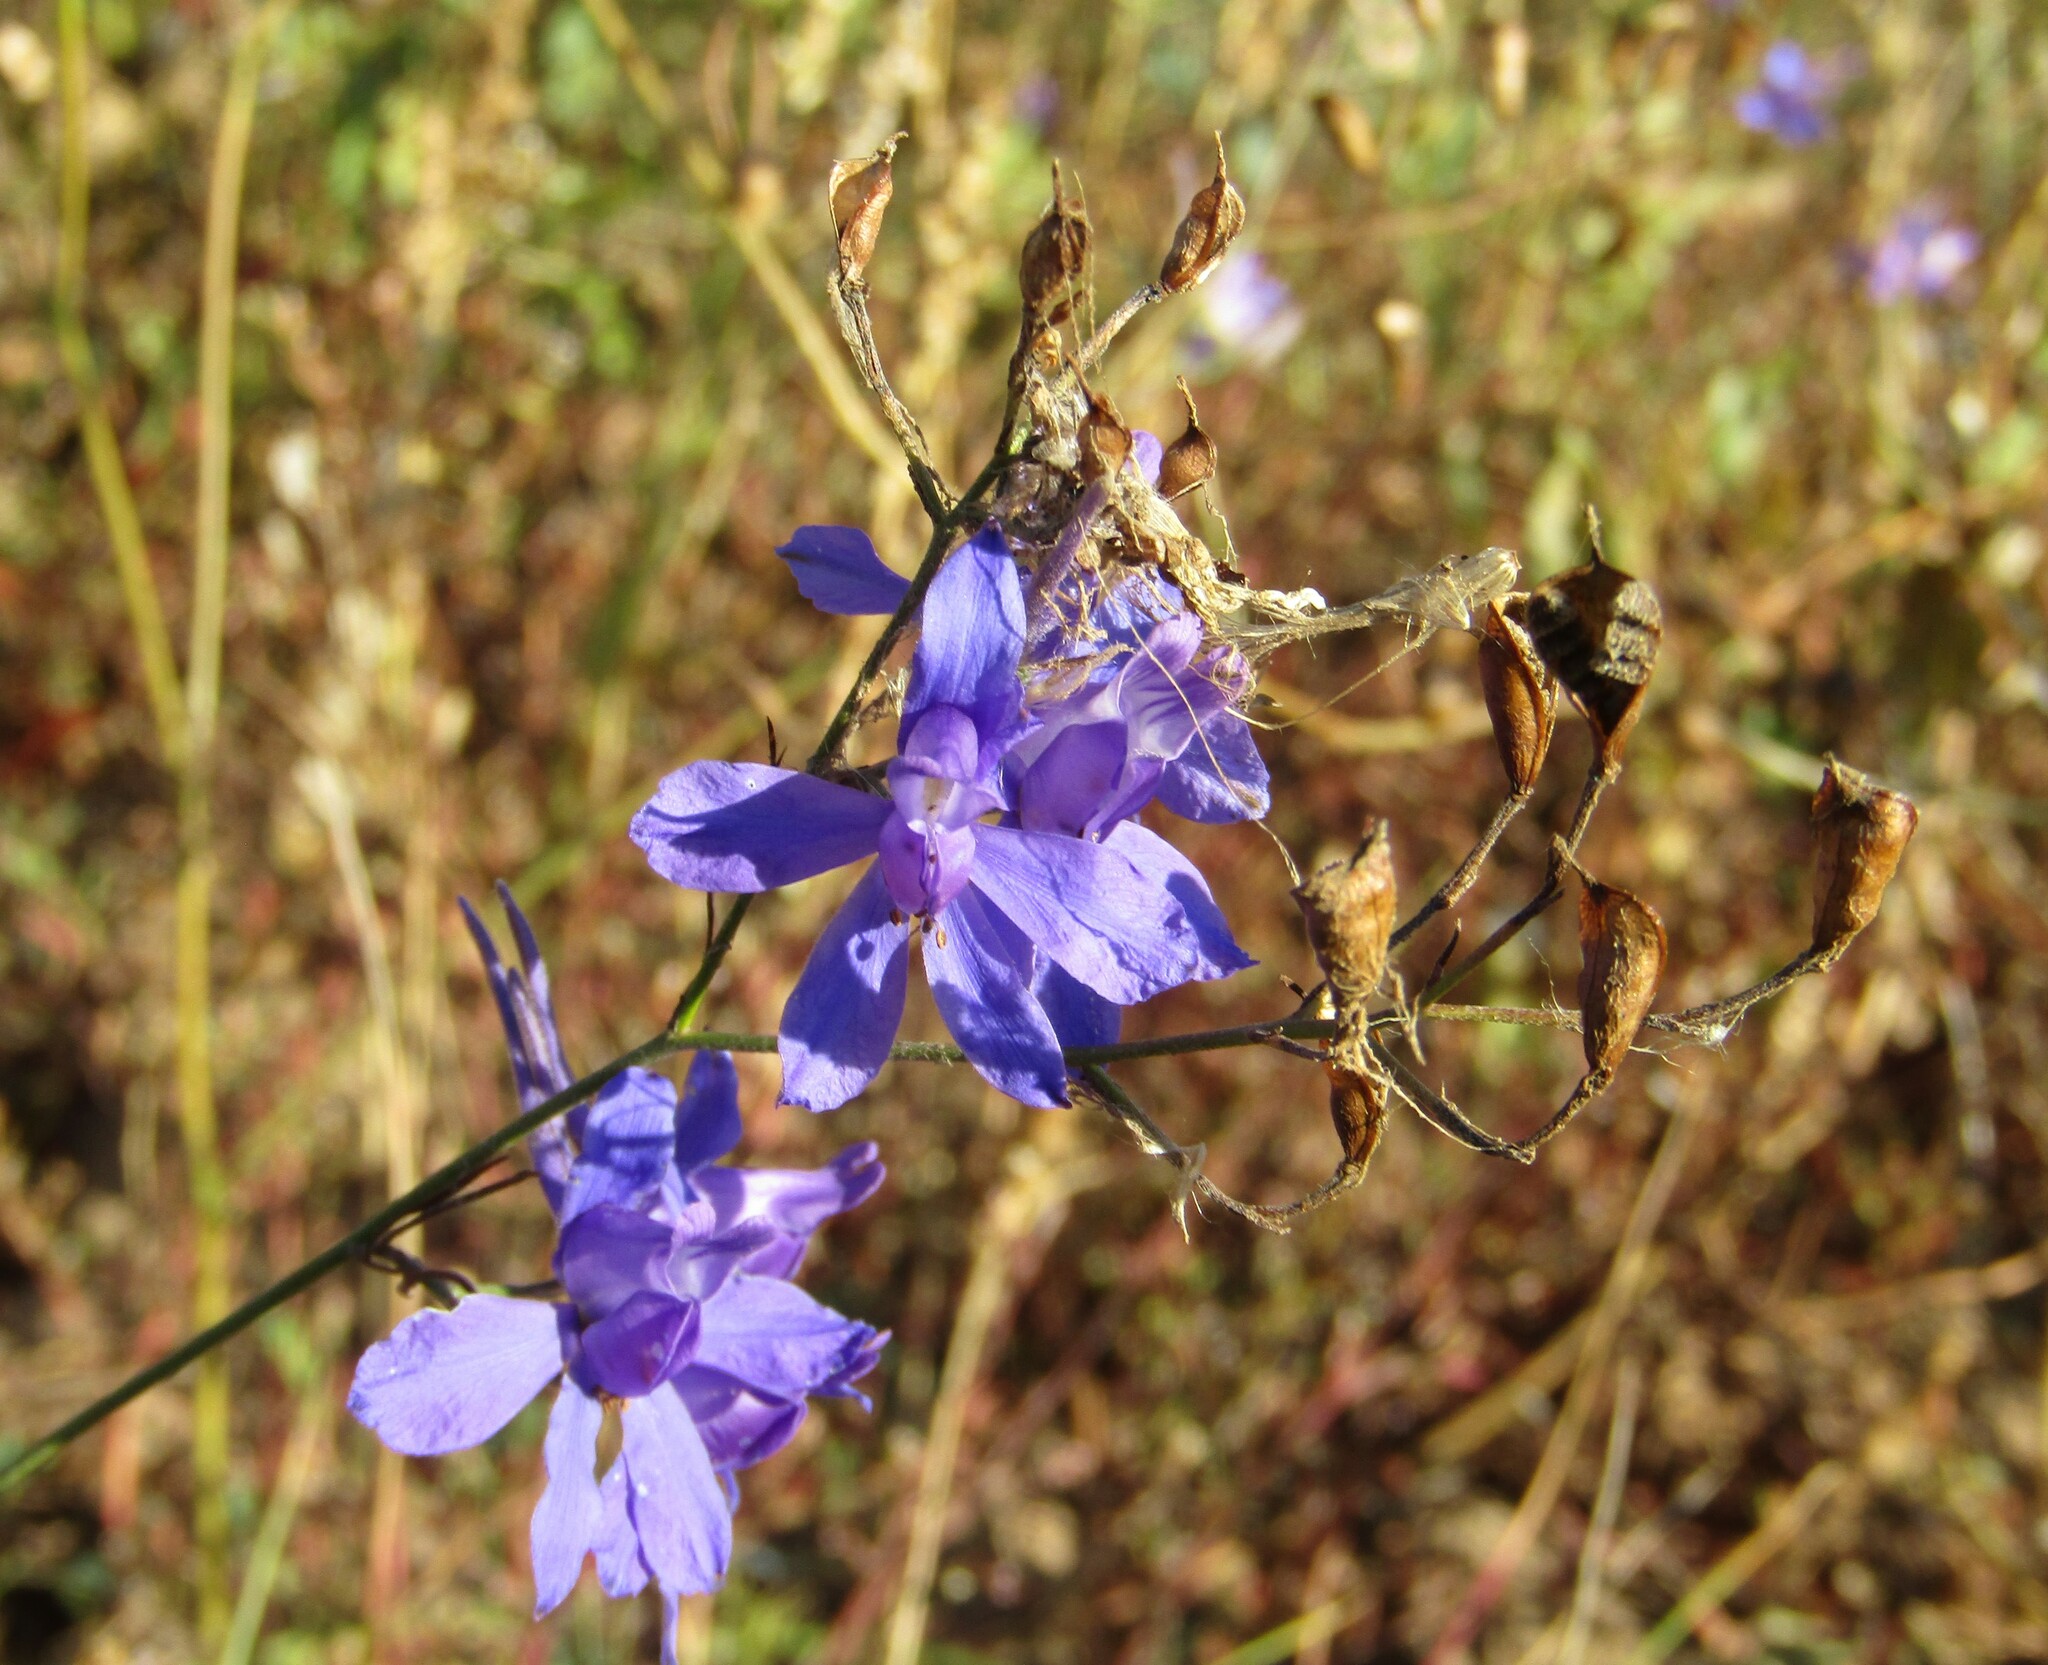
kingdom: Plantae
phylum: Tracheophyta
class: Magnoliopsida
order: Ranunculales
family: Ranunculaceae
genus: Delphinium
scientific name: Delphinium consolida
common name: Branching larkspur
